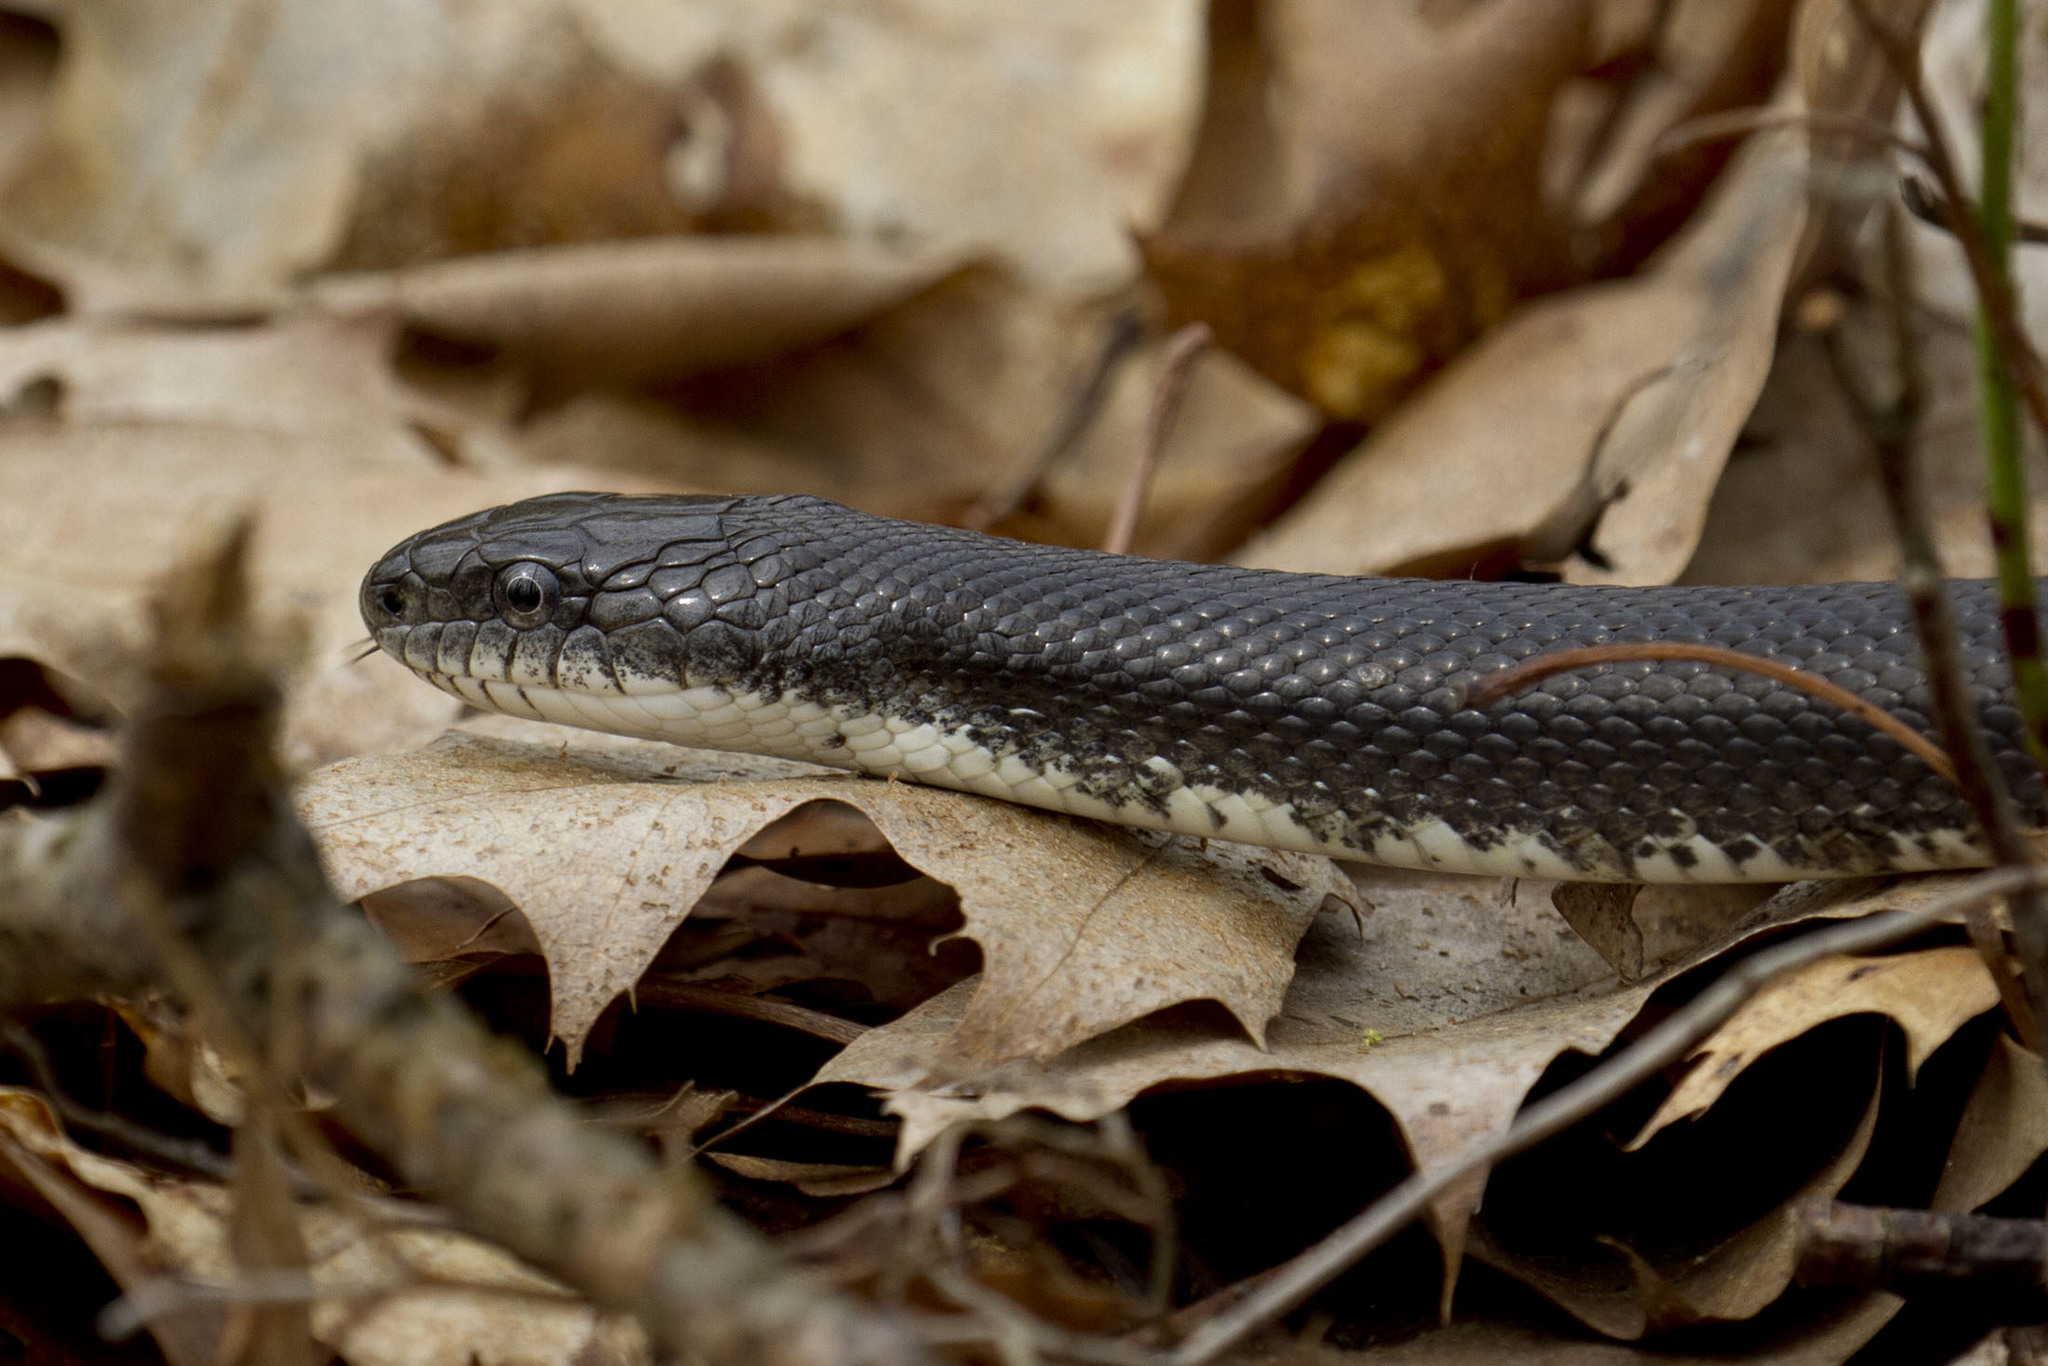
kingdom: Animalia
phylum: Chordata
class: Squamata
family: Colubridae
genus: Pantherophis
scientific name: Pantherophis alleghaniensis
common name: Eastern rat snake
